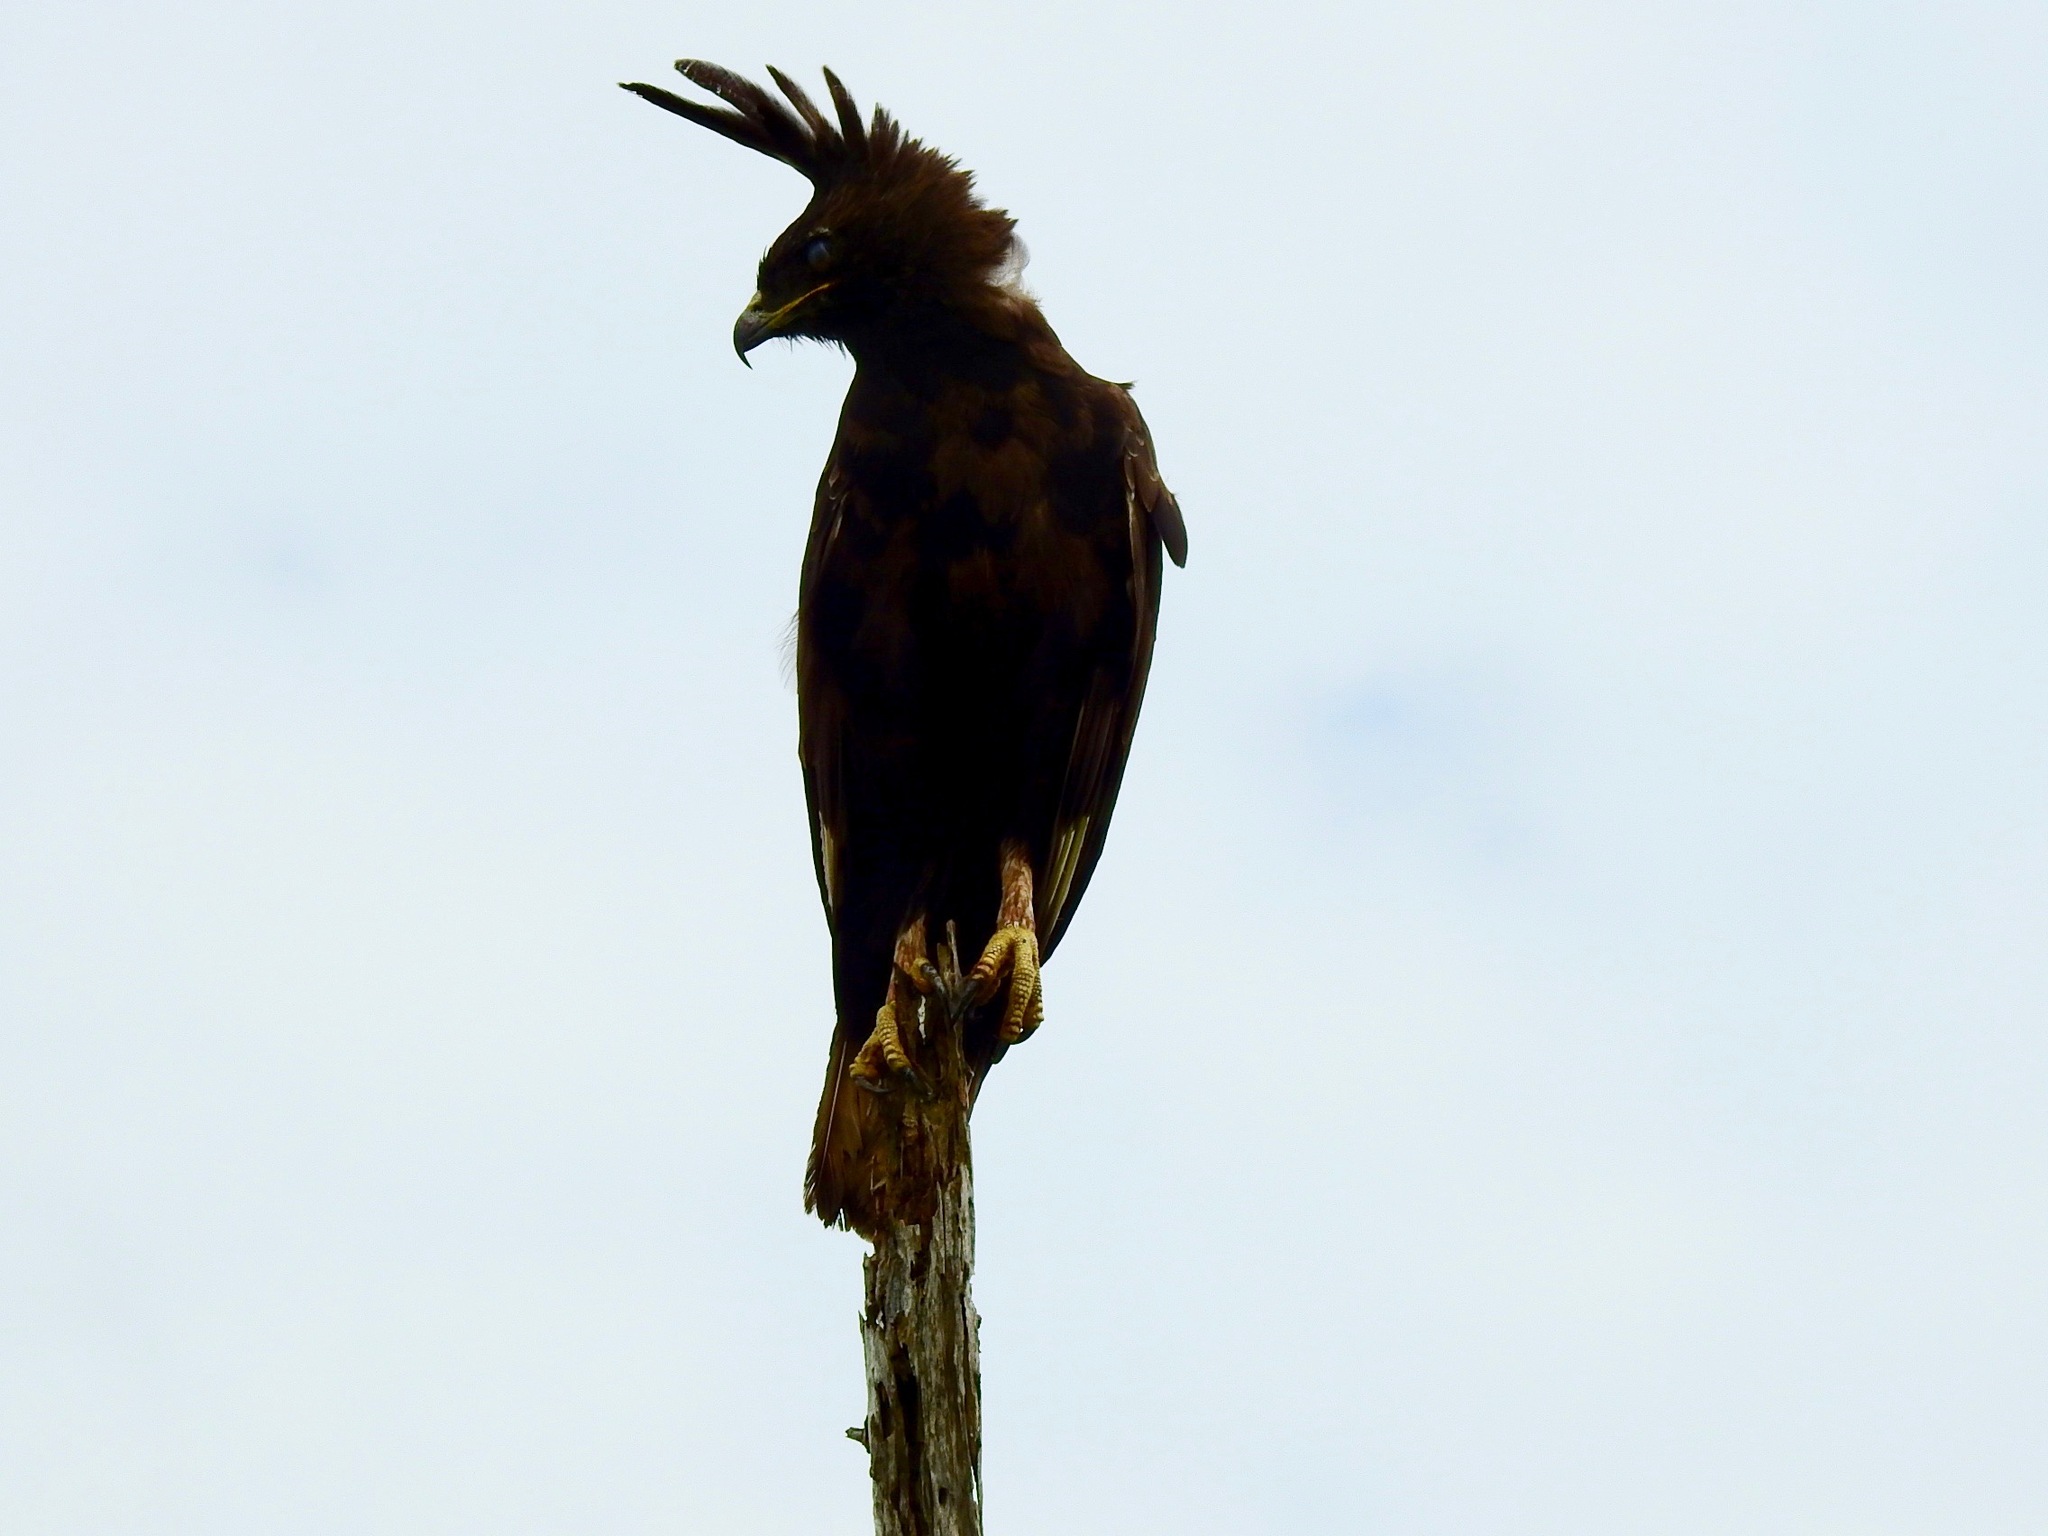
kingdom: Animalia
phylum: Chordata
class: Aves
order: Accipitriformes
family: Accipitridae
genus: Lophaetus
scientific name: Lophaetus occipitalis
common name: Long-crested eagle
